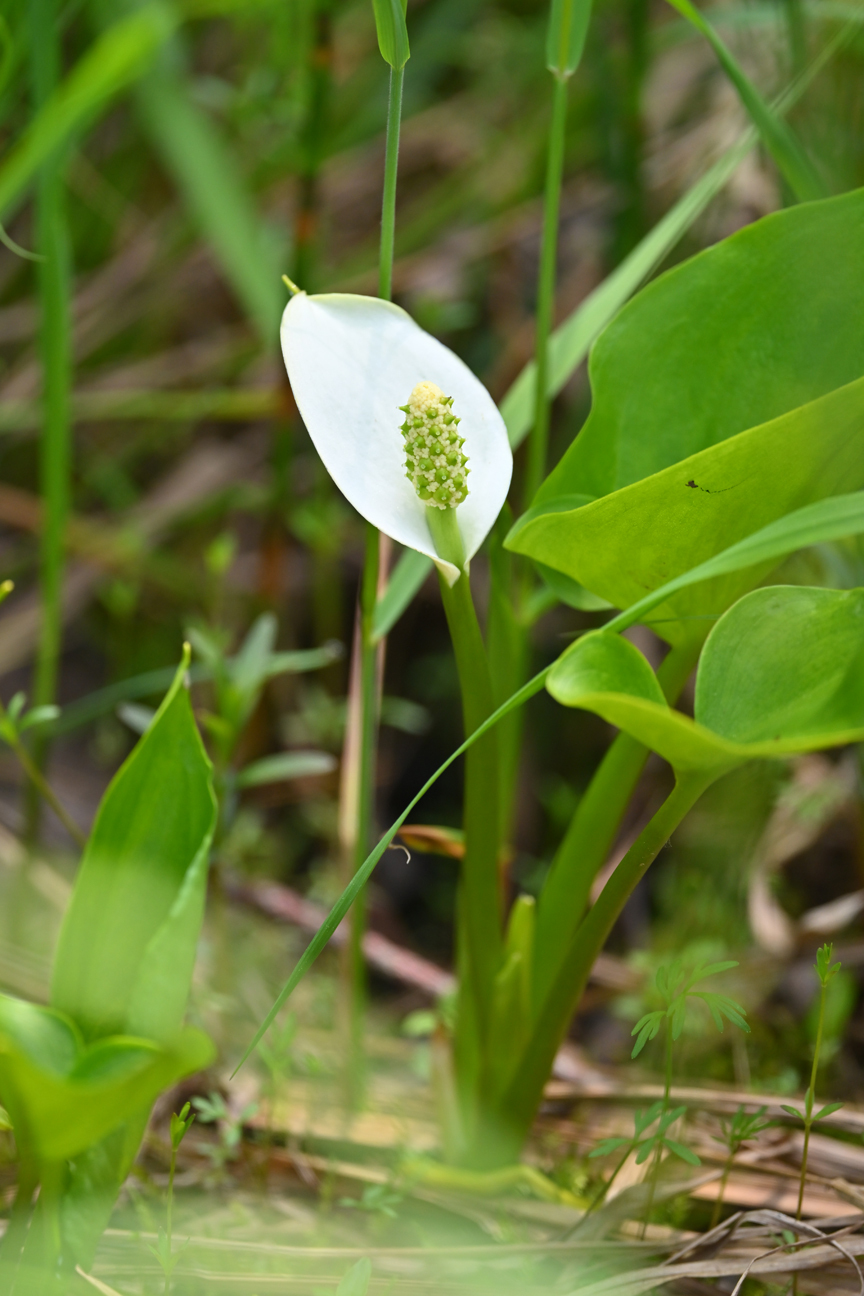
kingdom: Plantae
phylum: Tracheophyta
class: Liliopsida
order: Alismatales
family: Araceae
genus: Calla
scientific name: Calla palustris
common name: Bog arum
